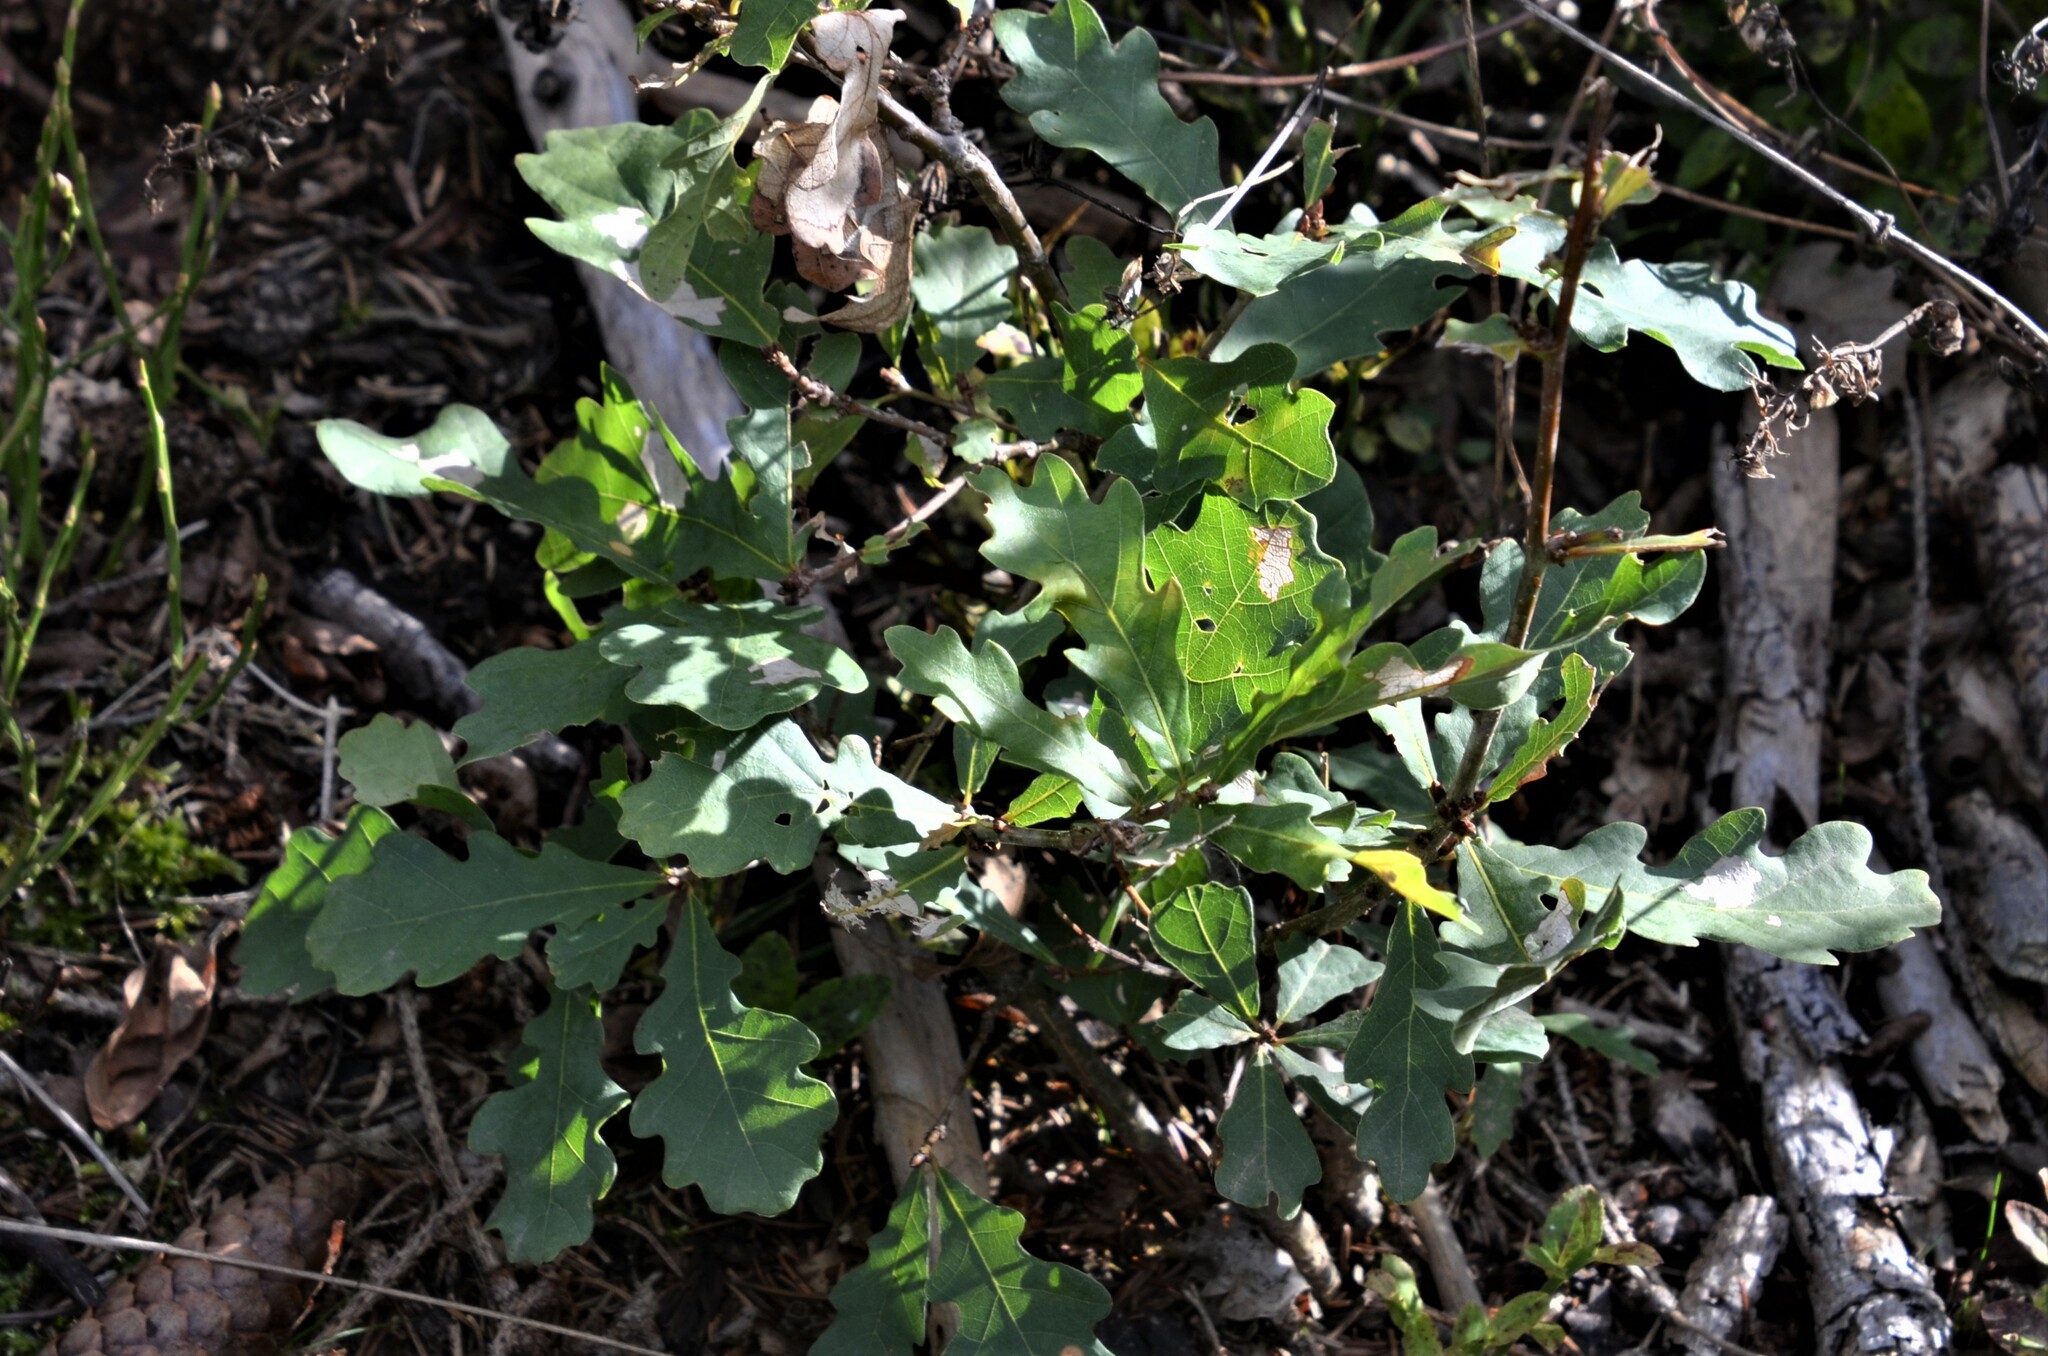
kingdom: Plantae
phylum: Tracheophyta
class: Magnoliopsida
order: Fagales
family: Fagaceae
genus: Quercus
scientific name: Quercus robur
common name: Pedunculate oak
